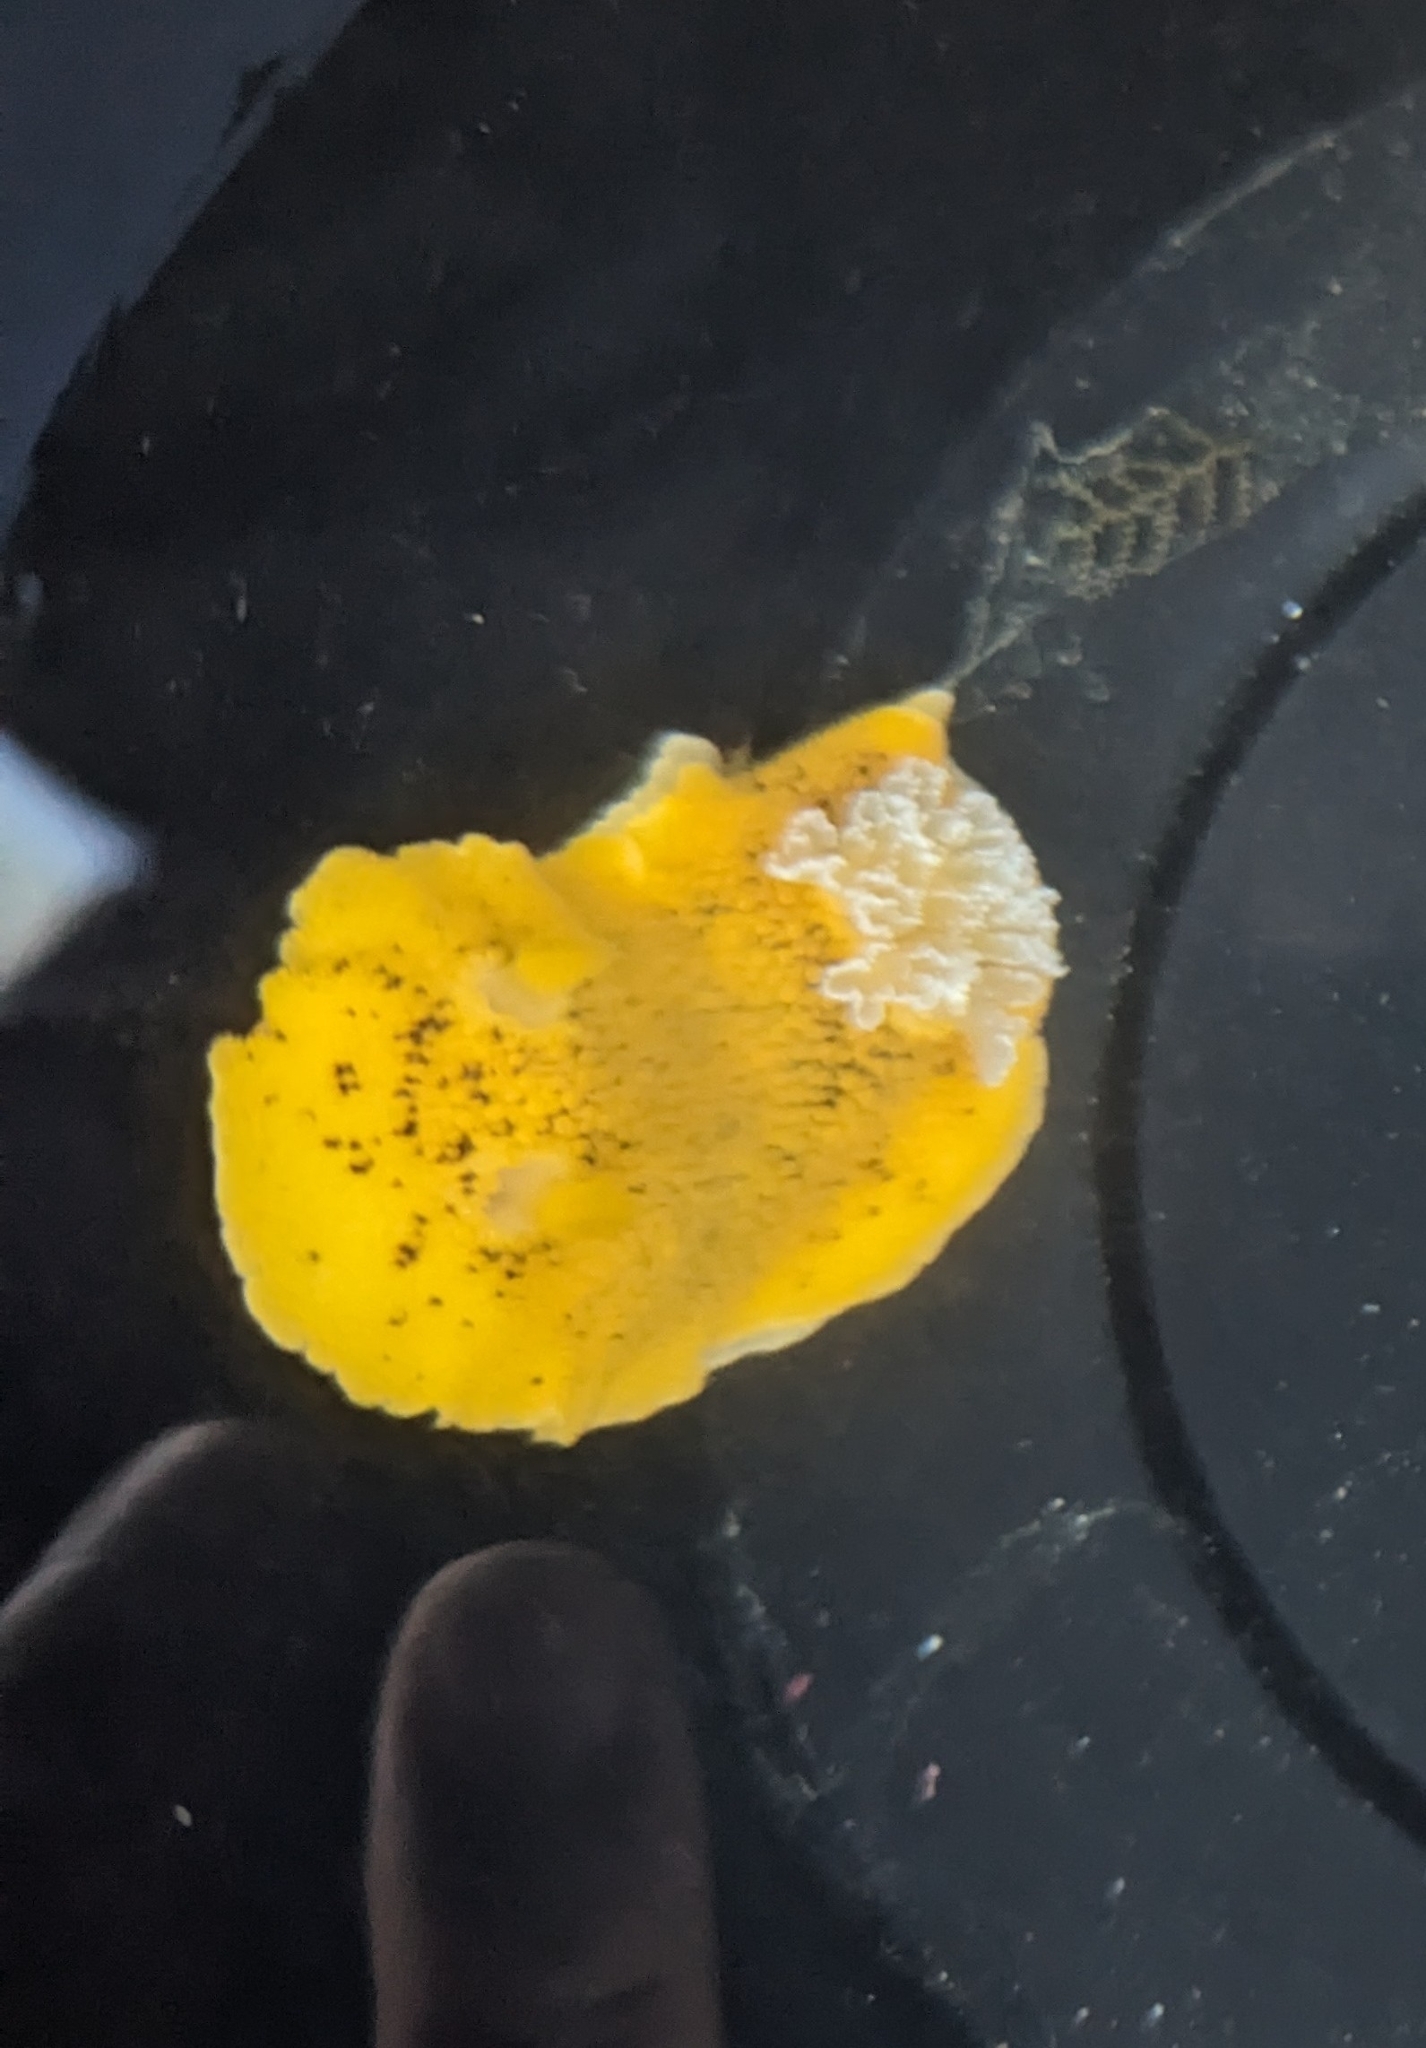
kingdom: Animalia
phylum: Mollusca
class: Gastropoda
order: Nudibranchia
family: Discodorididae
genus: Peltodoris
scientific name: Peltodoris nobilis
